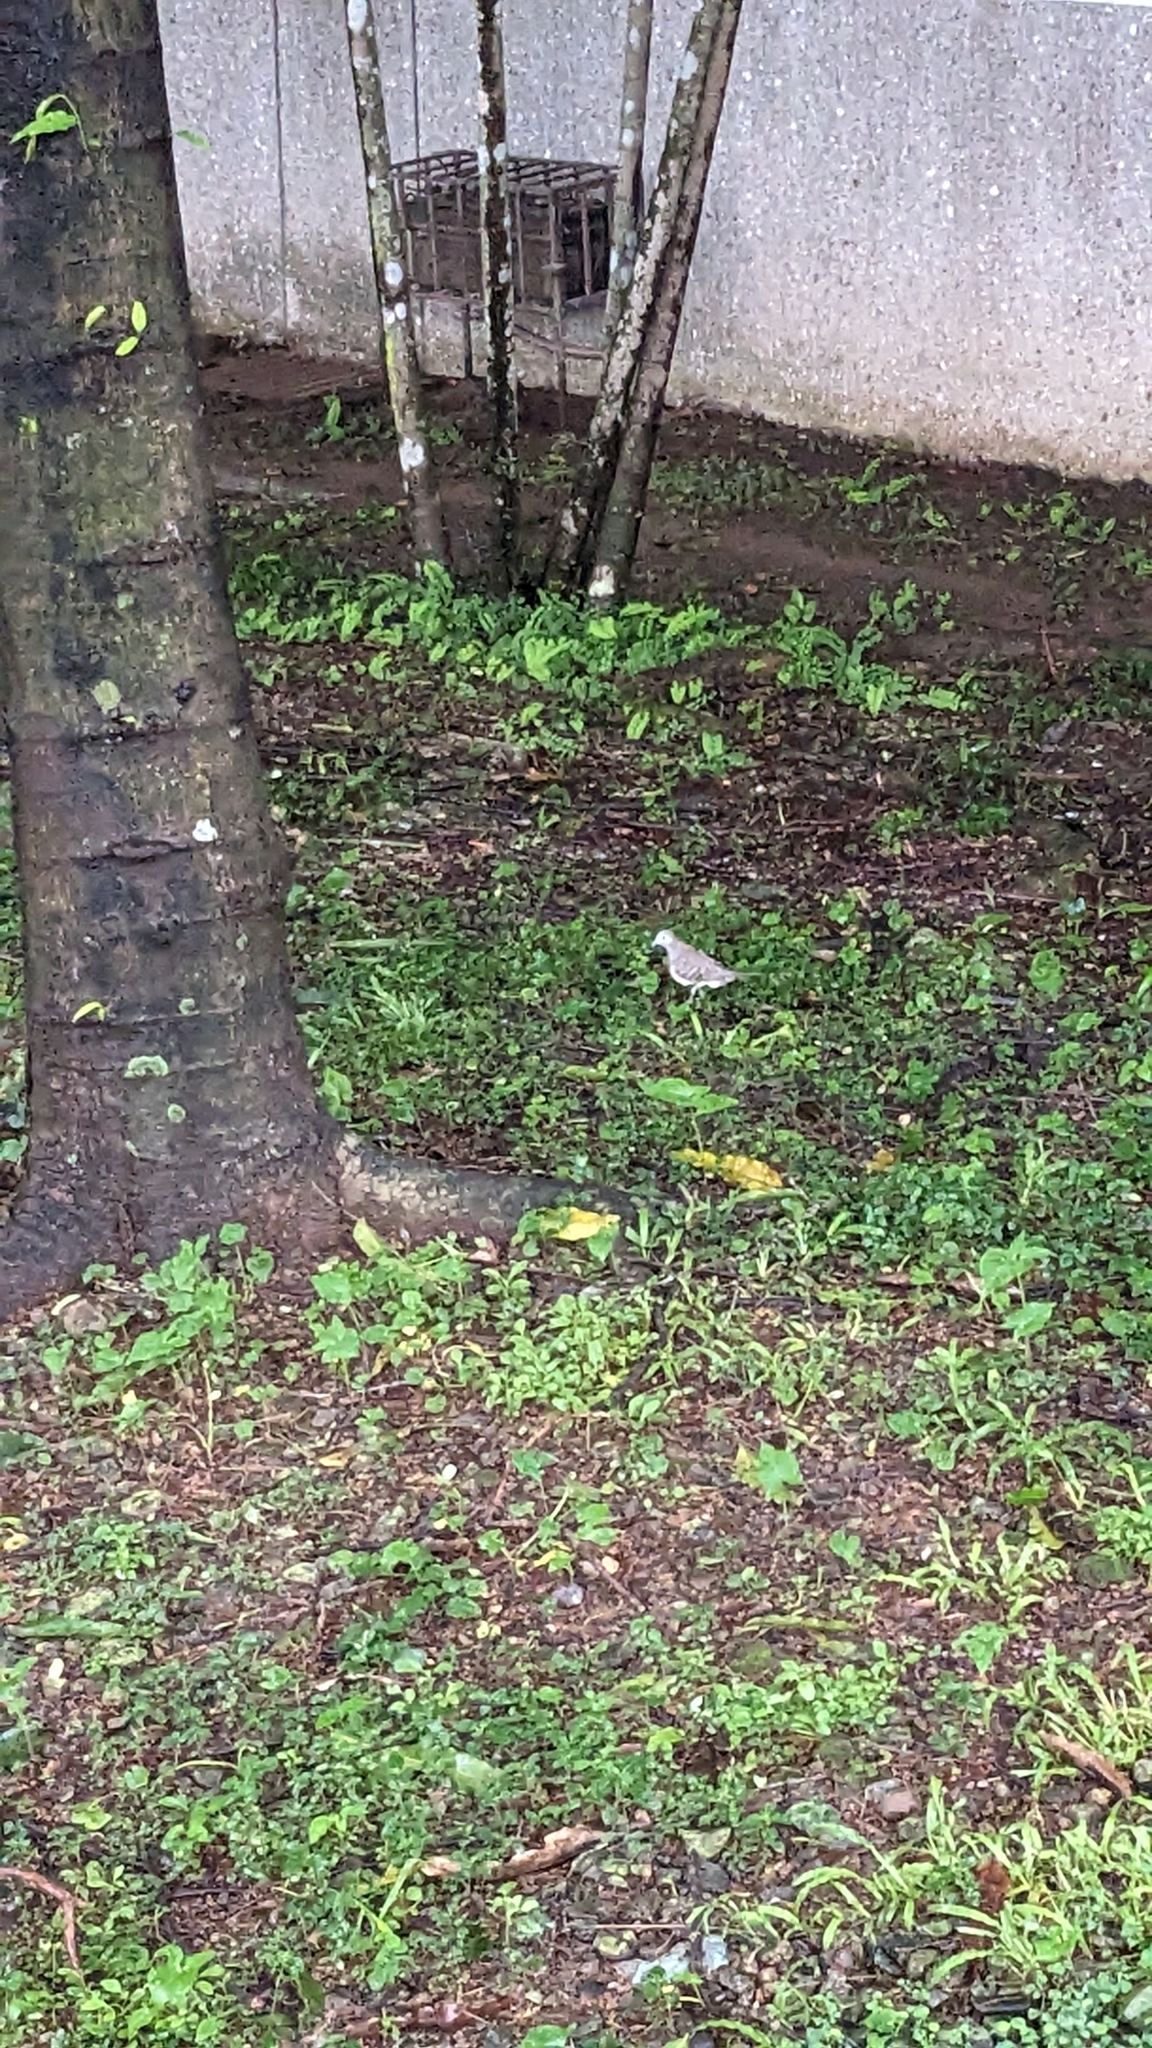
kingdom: Animalia
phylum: Chordata
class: Aves
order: Columbiformes
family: Columbidae
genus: Geopelia
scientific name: Geopelia striata
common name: Zebra dove
